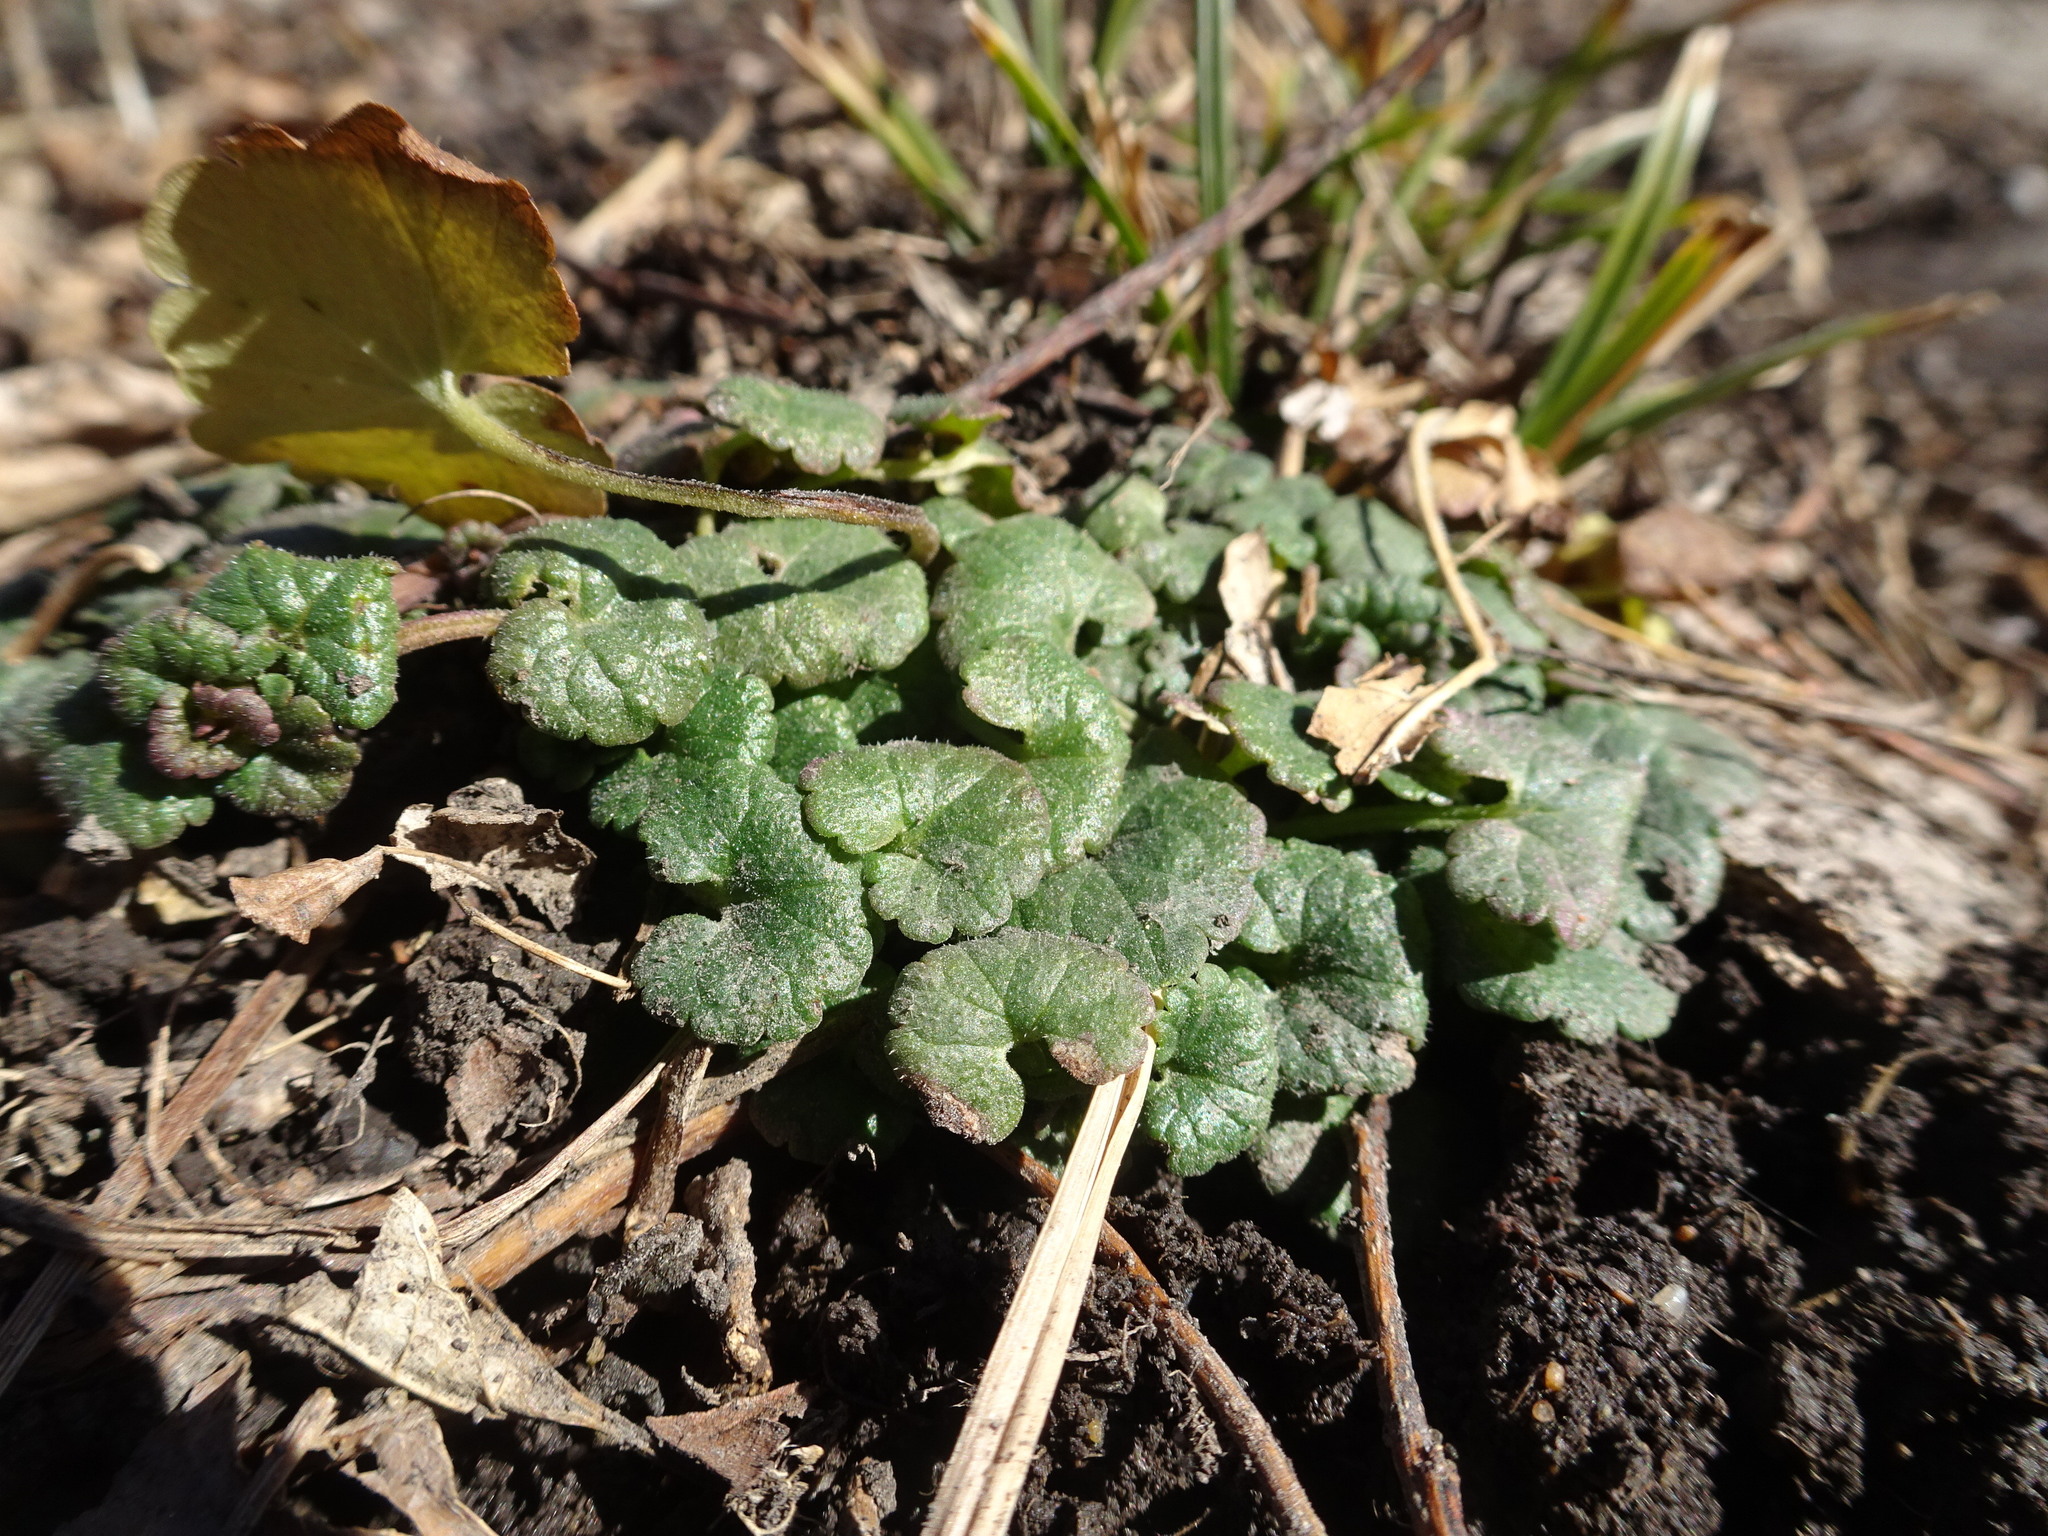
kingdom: Plantae
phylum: Tracheophyta
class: Magnoliopsida
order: Lamiales
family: Lamiaceae
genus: Glechoma
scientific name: Glechoma hederacea
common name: Ground ivy
